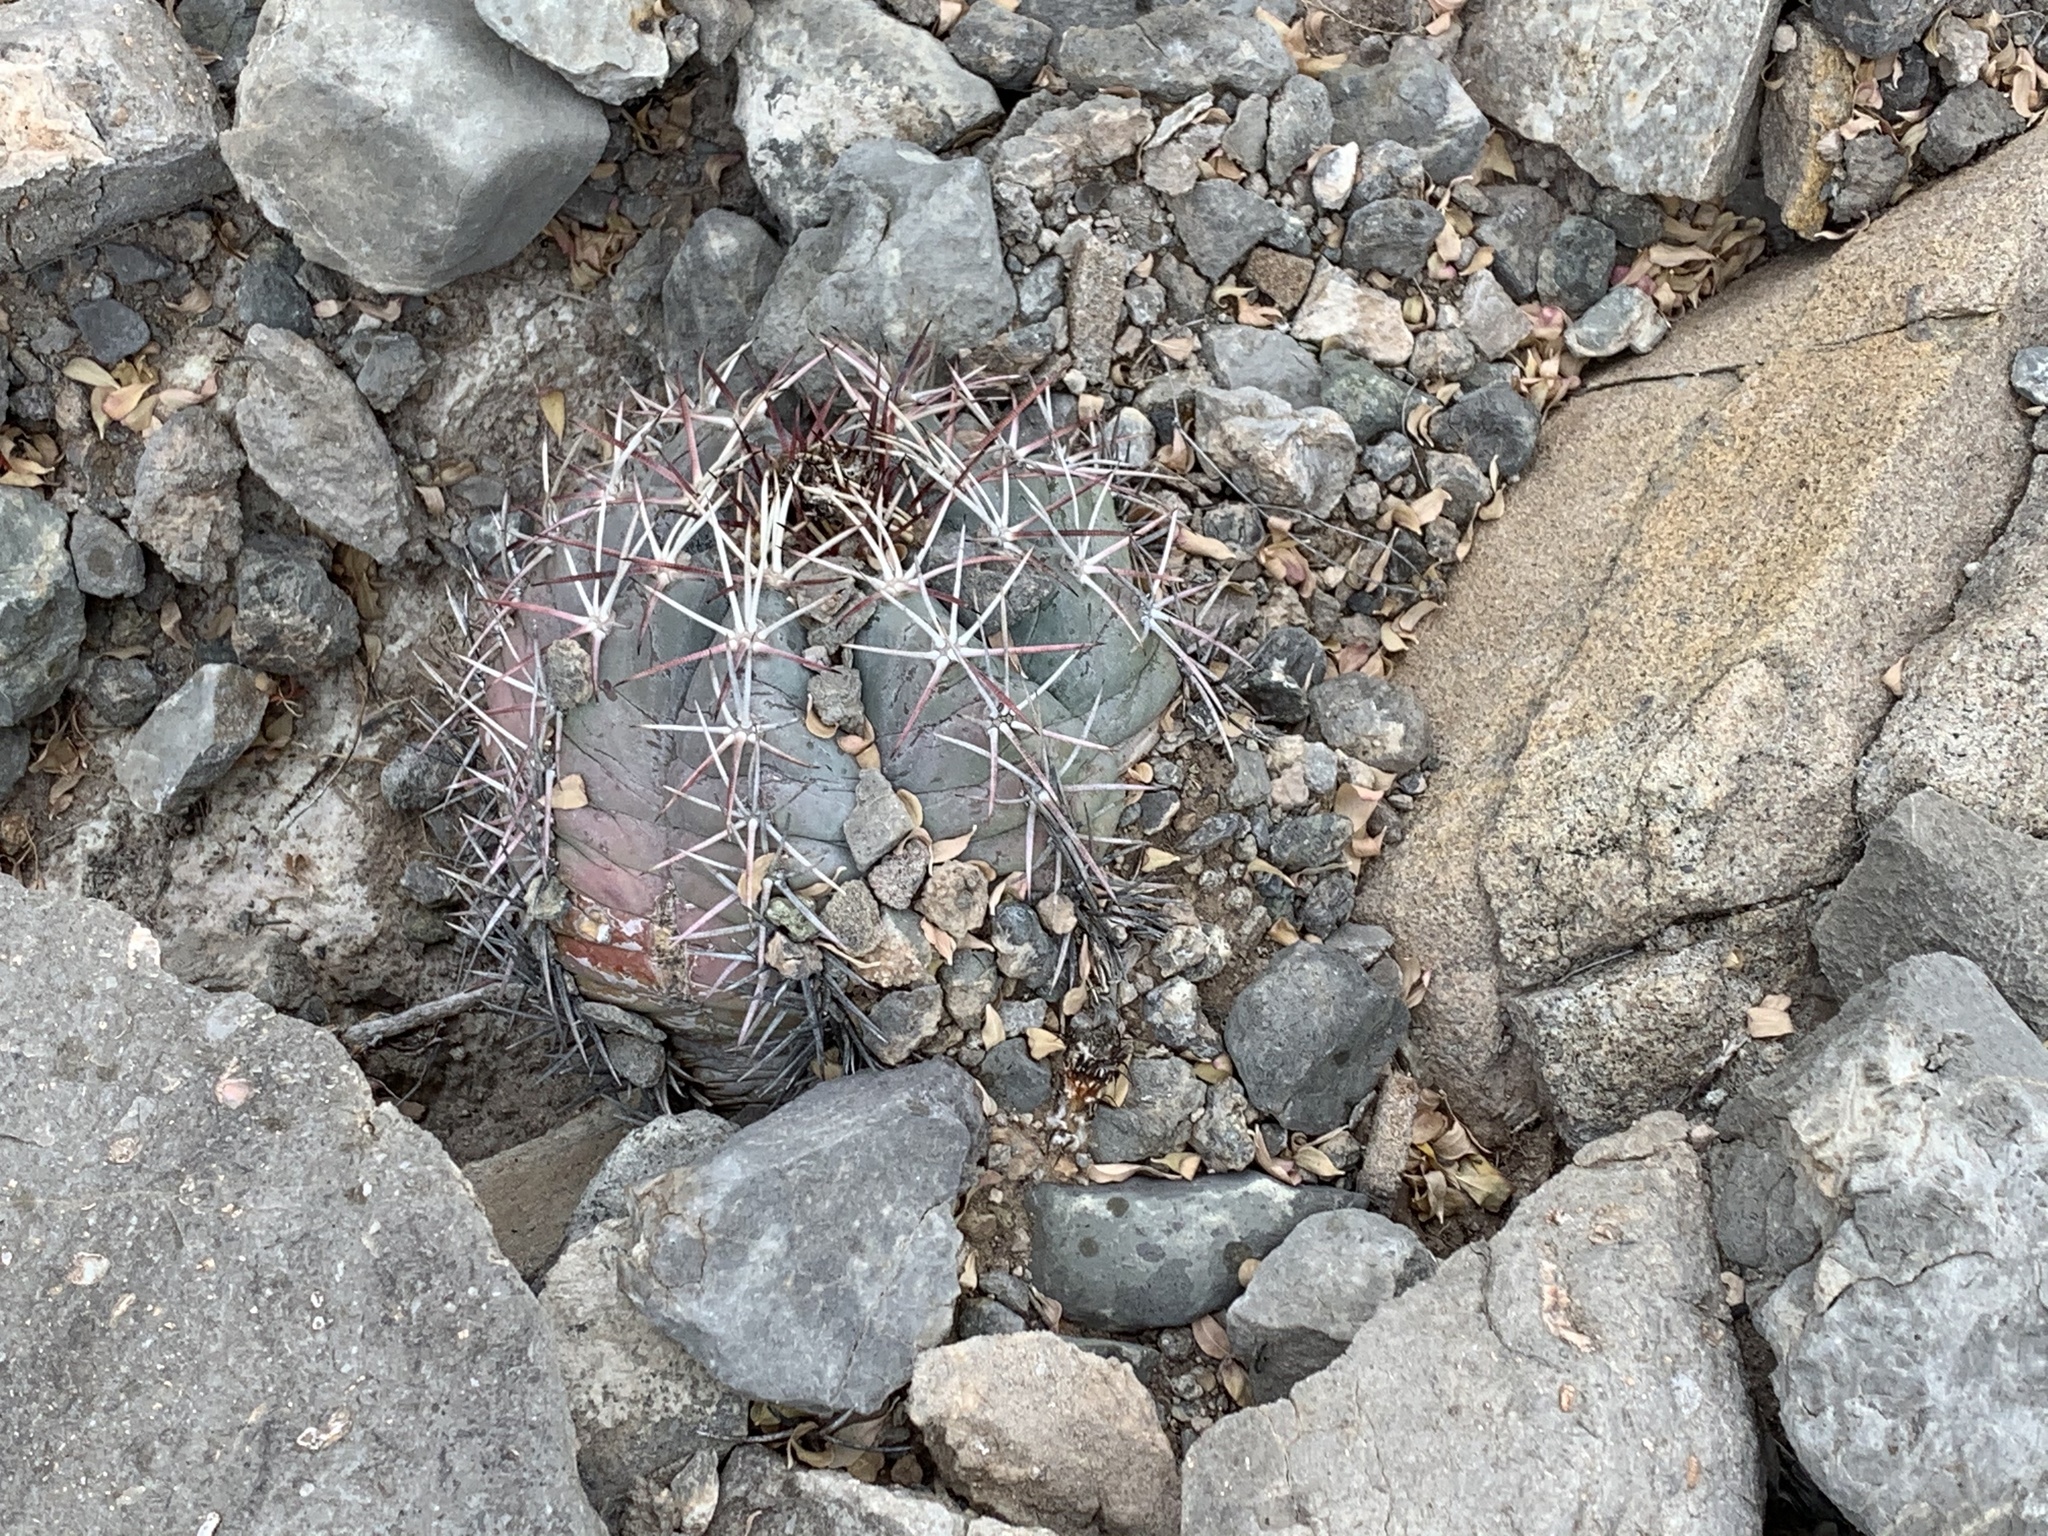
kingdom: Plantae
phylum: Tracheophyta
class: Magnoliopsida
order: Caryophyllales
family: Cactaceae
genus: Echinocactus
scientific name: Echinocactus horizonthalonius
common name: Devilshead
